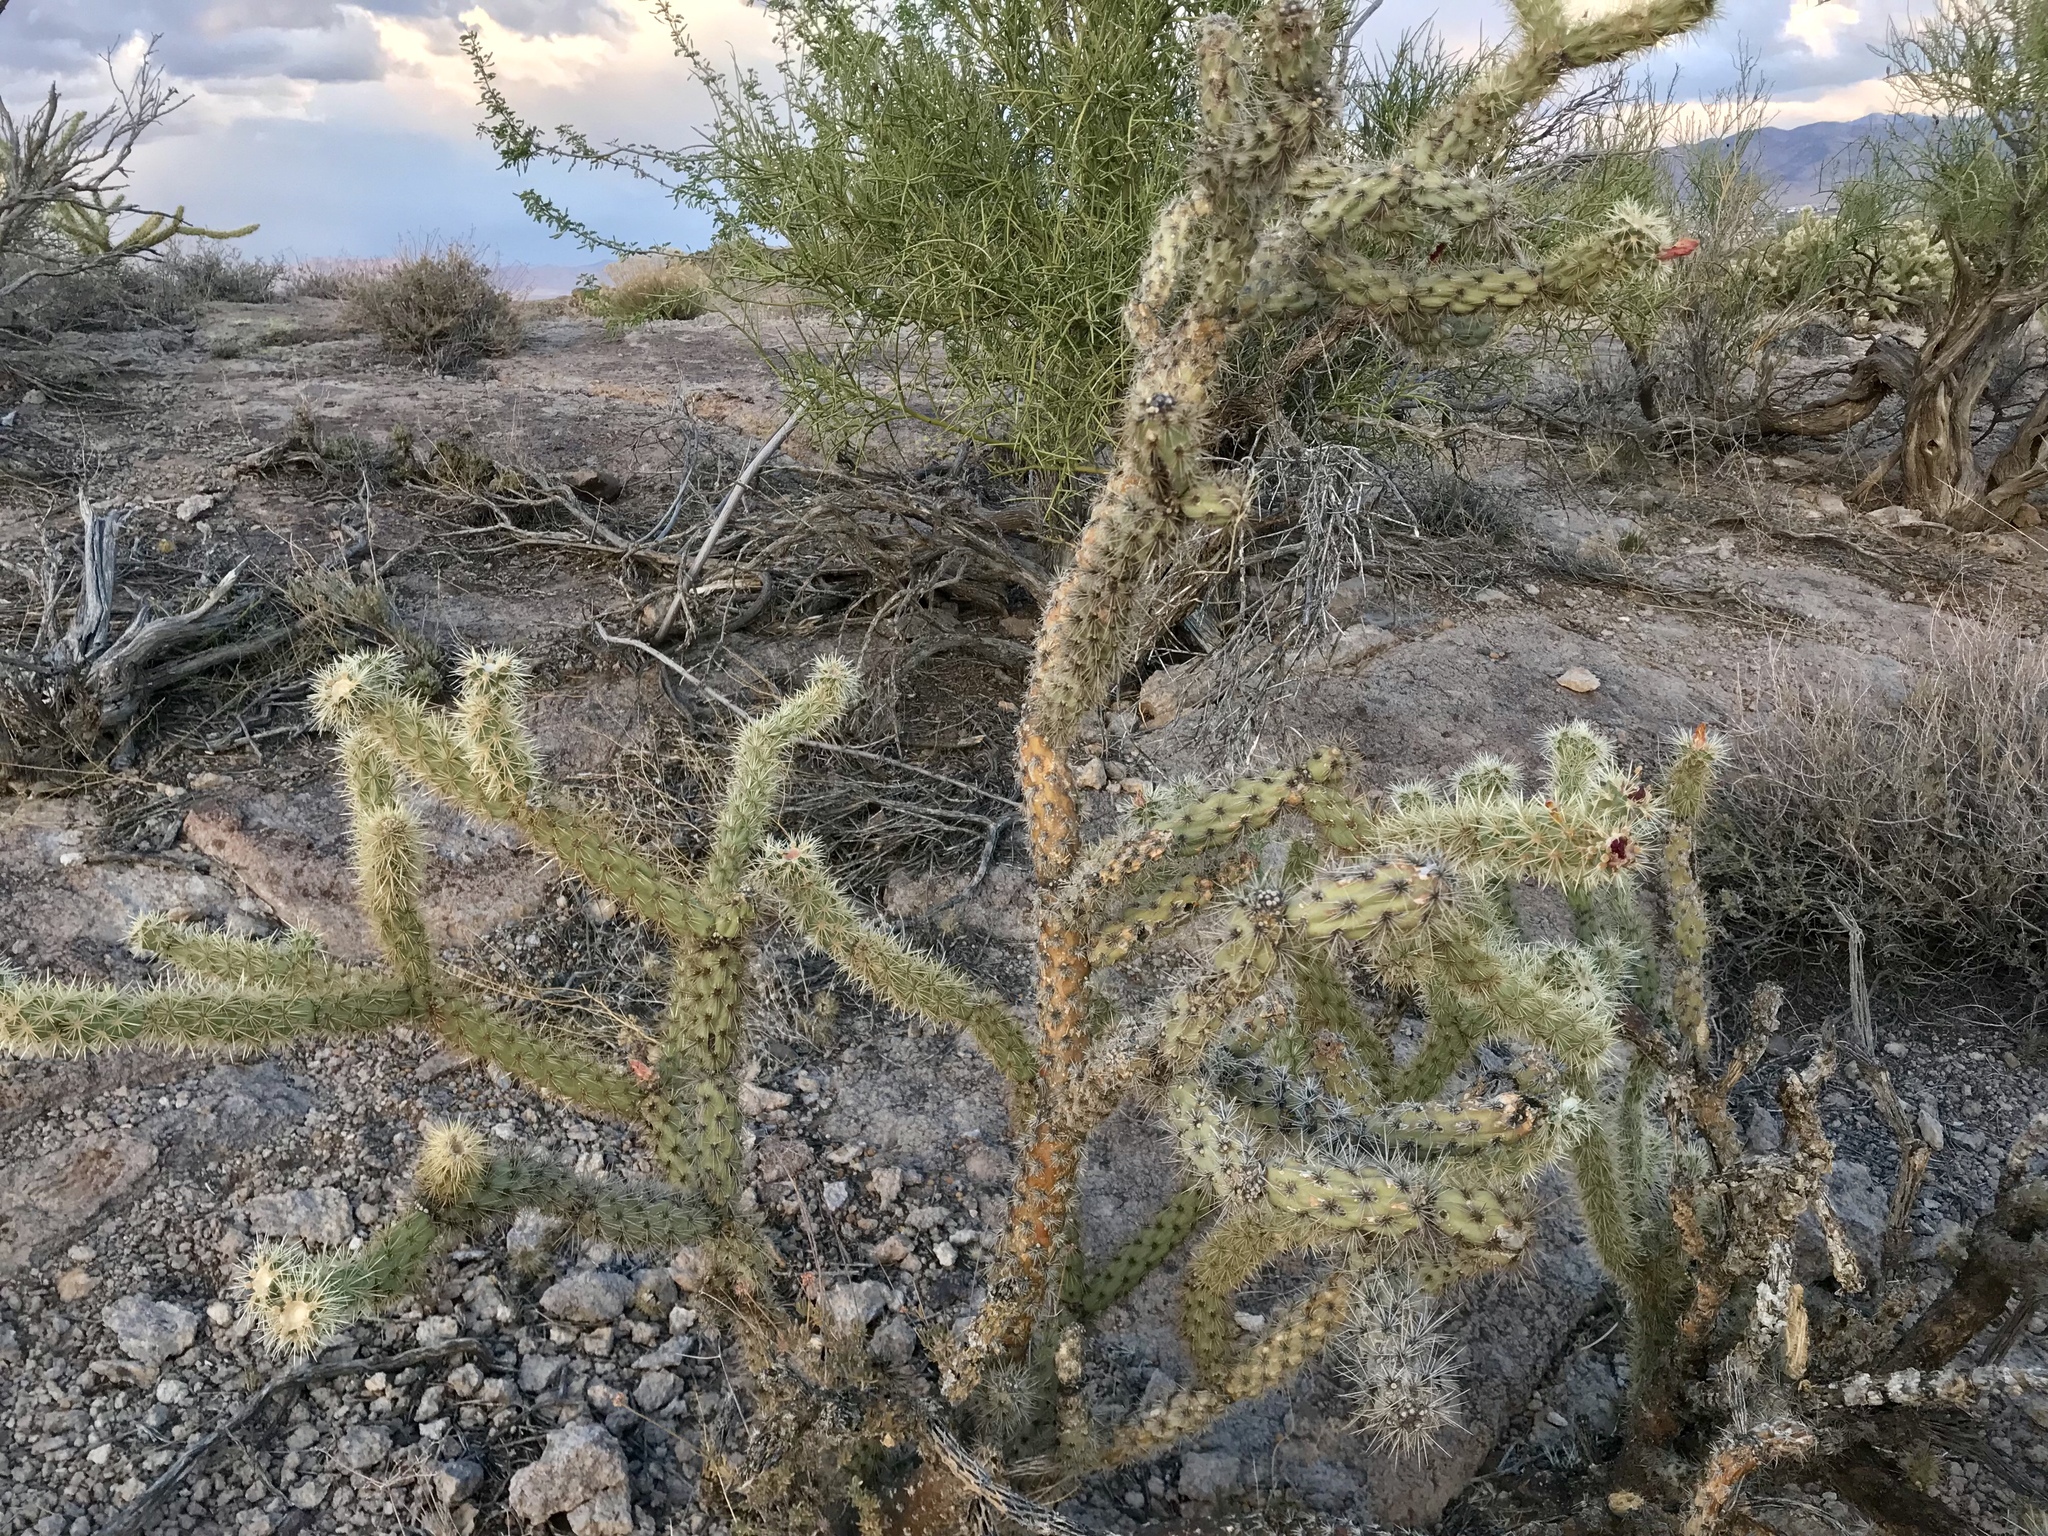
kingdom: Plantae
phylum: Tracheophyta
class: Magnoliopsida
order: Caryophyllales
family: Cactaceae
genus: Cylindropuntia
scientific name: Cylindropuntia acanthocarpa
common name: Buckhorn cholla
